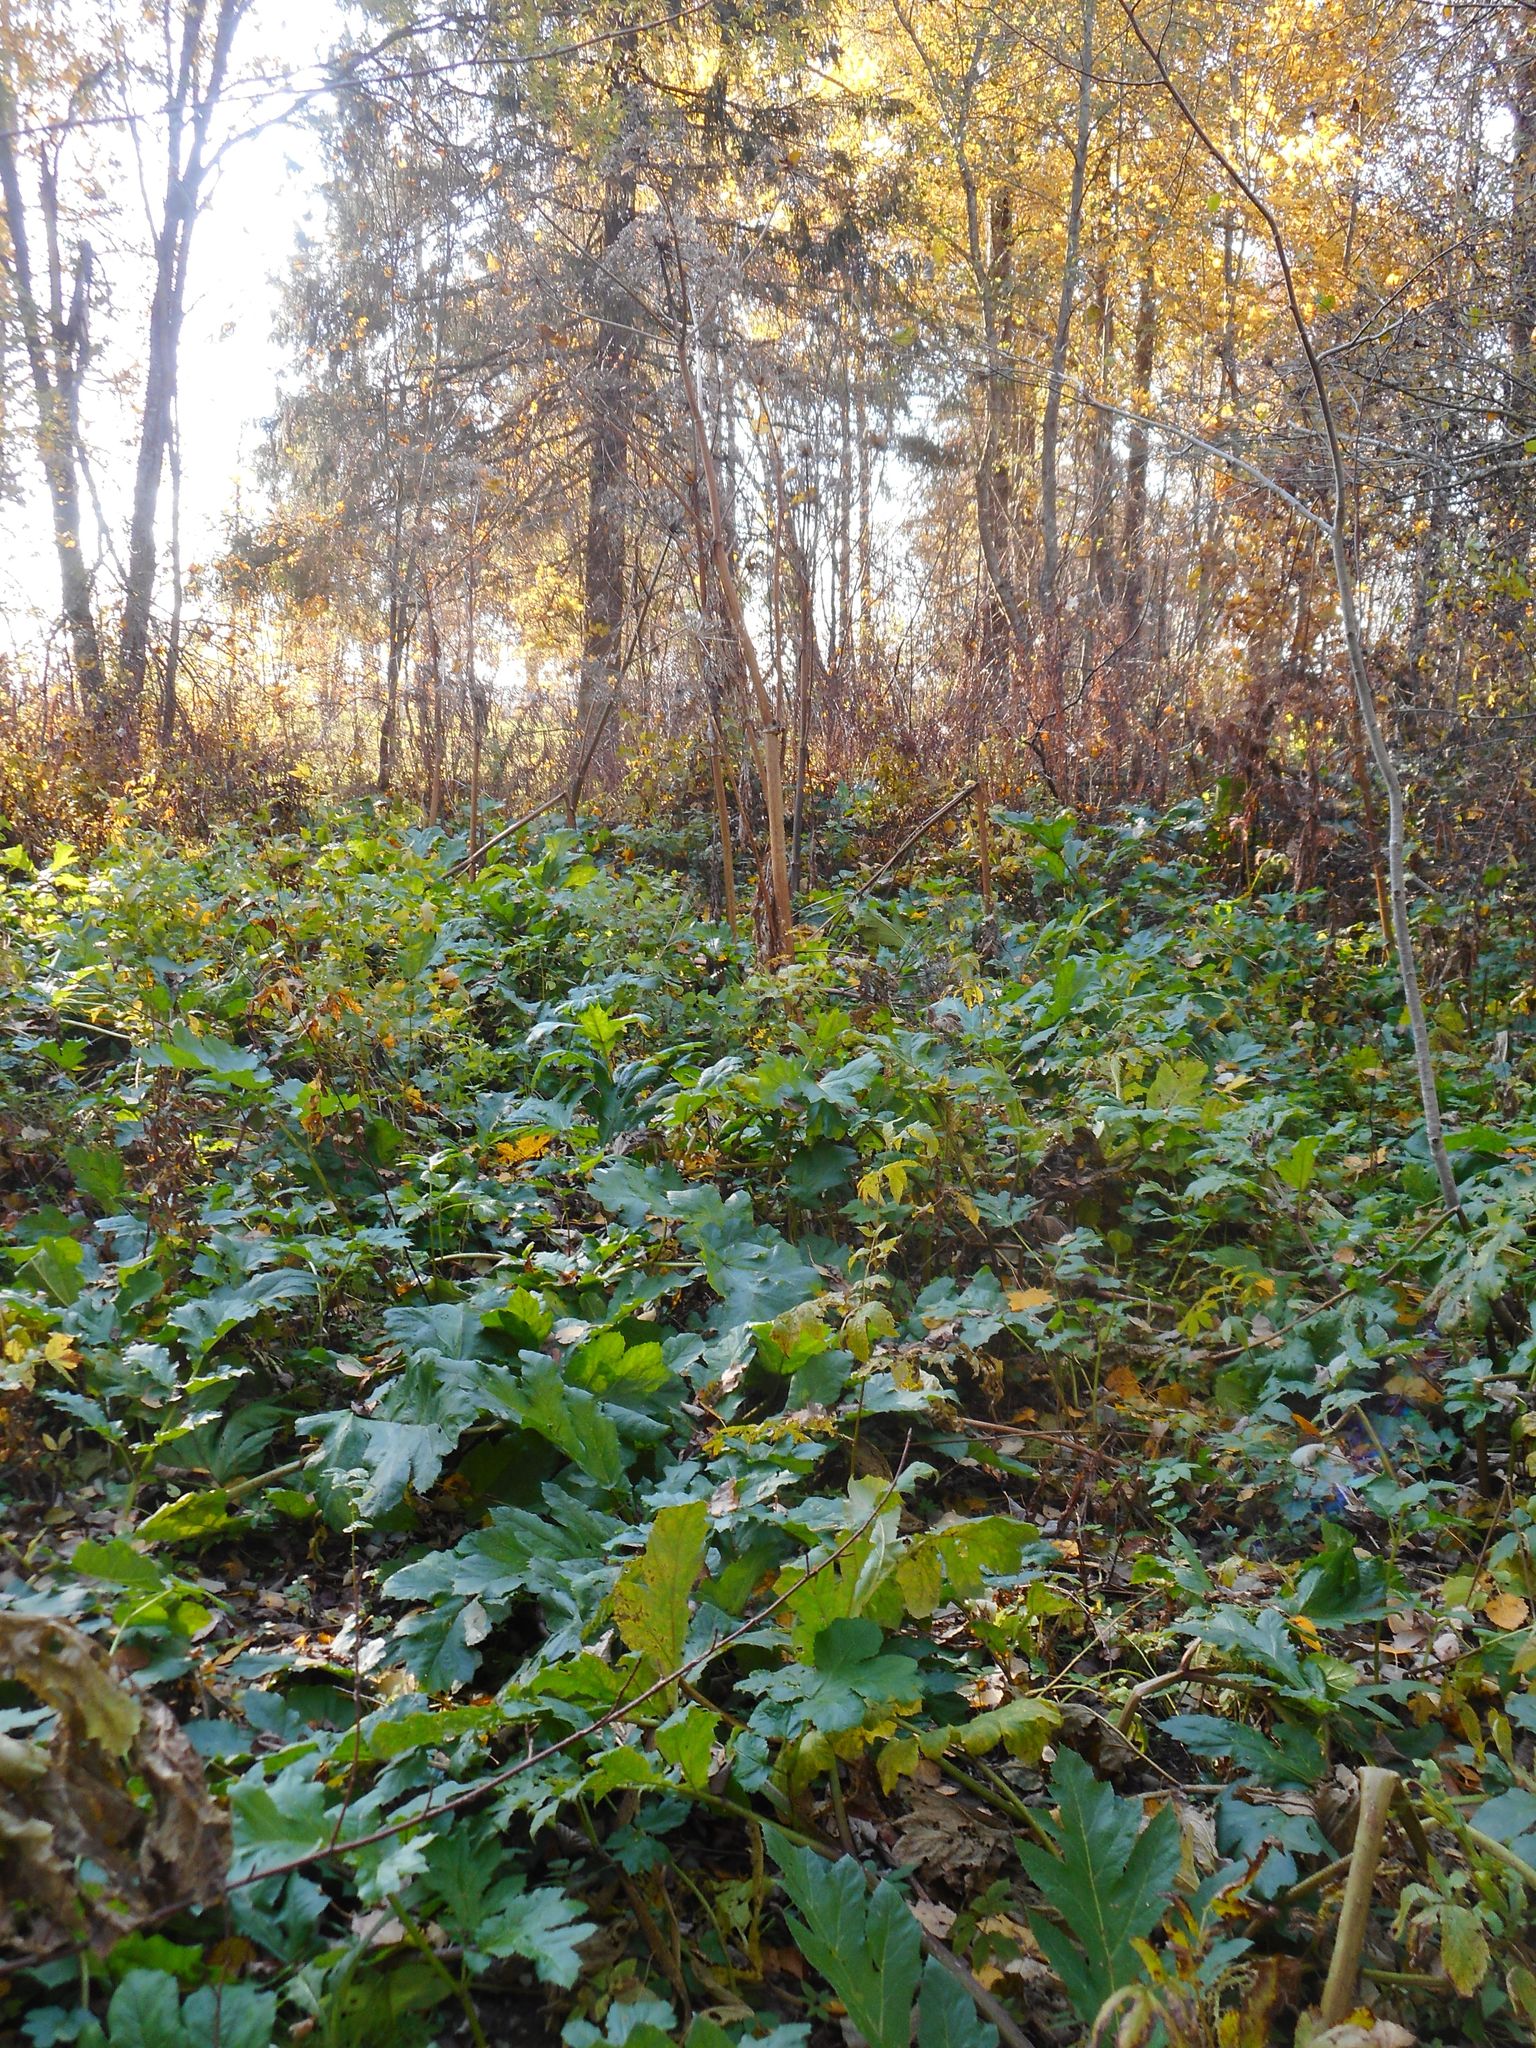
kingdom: Plantae
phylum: Tracheophyta
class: Magnoliopsida
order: Apiales
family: Apiaceae
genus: Heracleum
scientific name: Heracleum sosnowskyi
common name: Sosnowsky's hogweed
